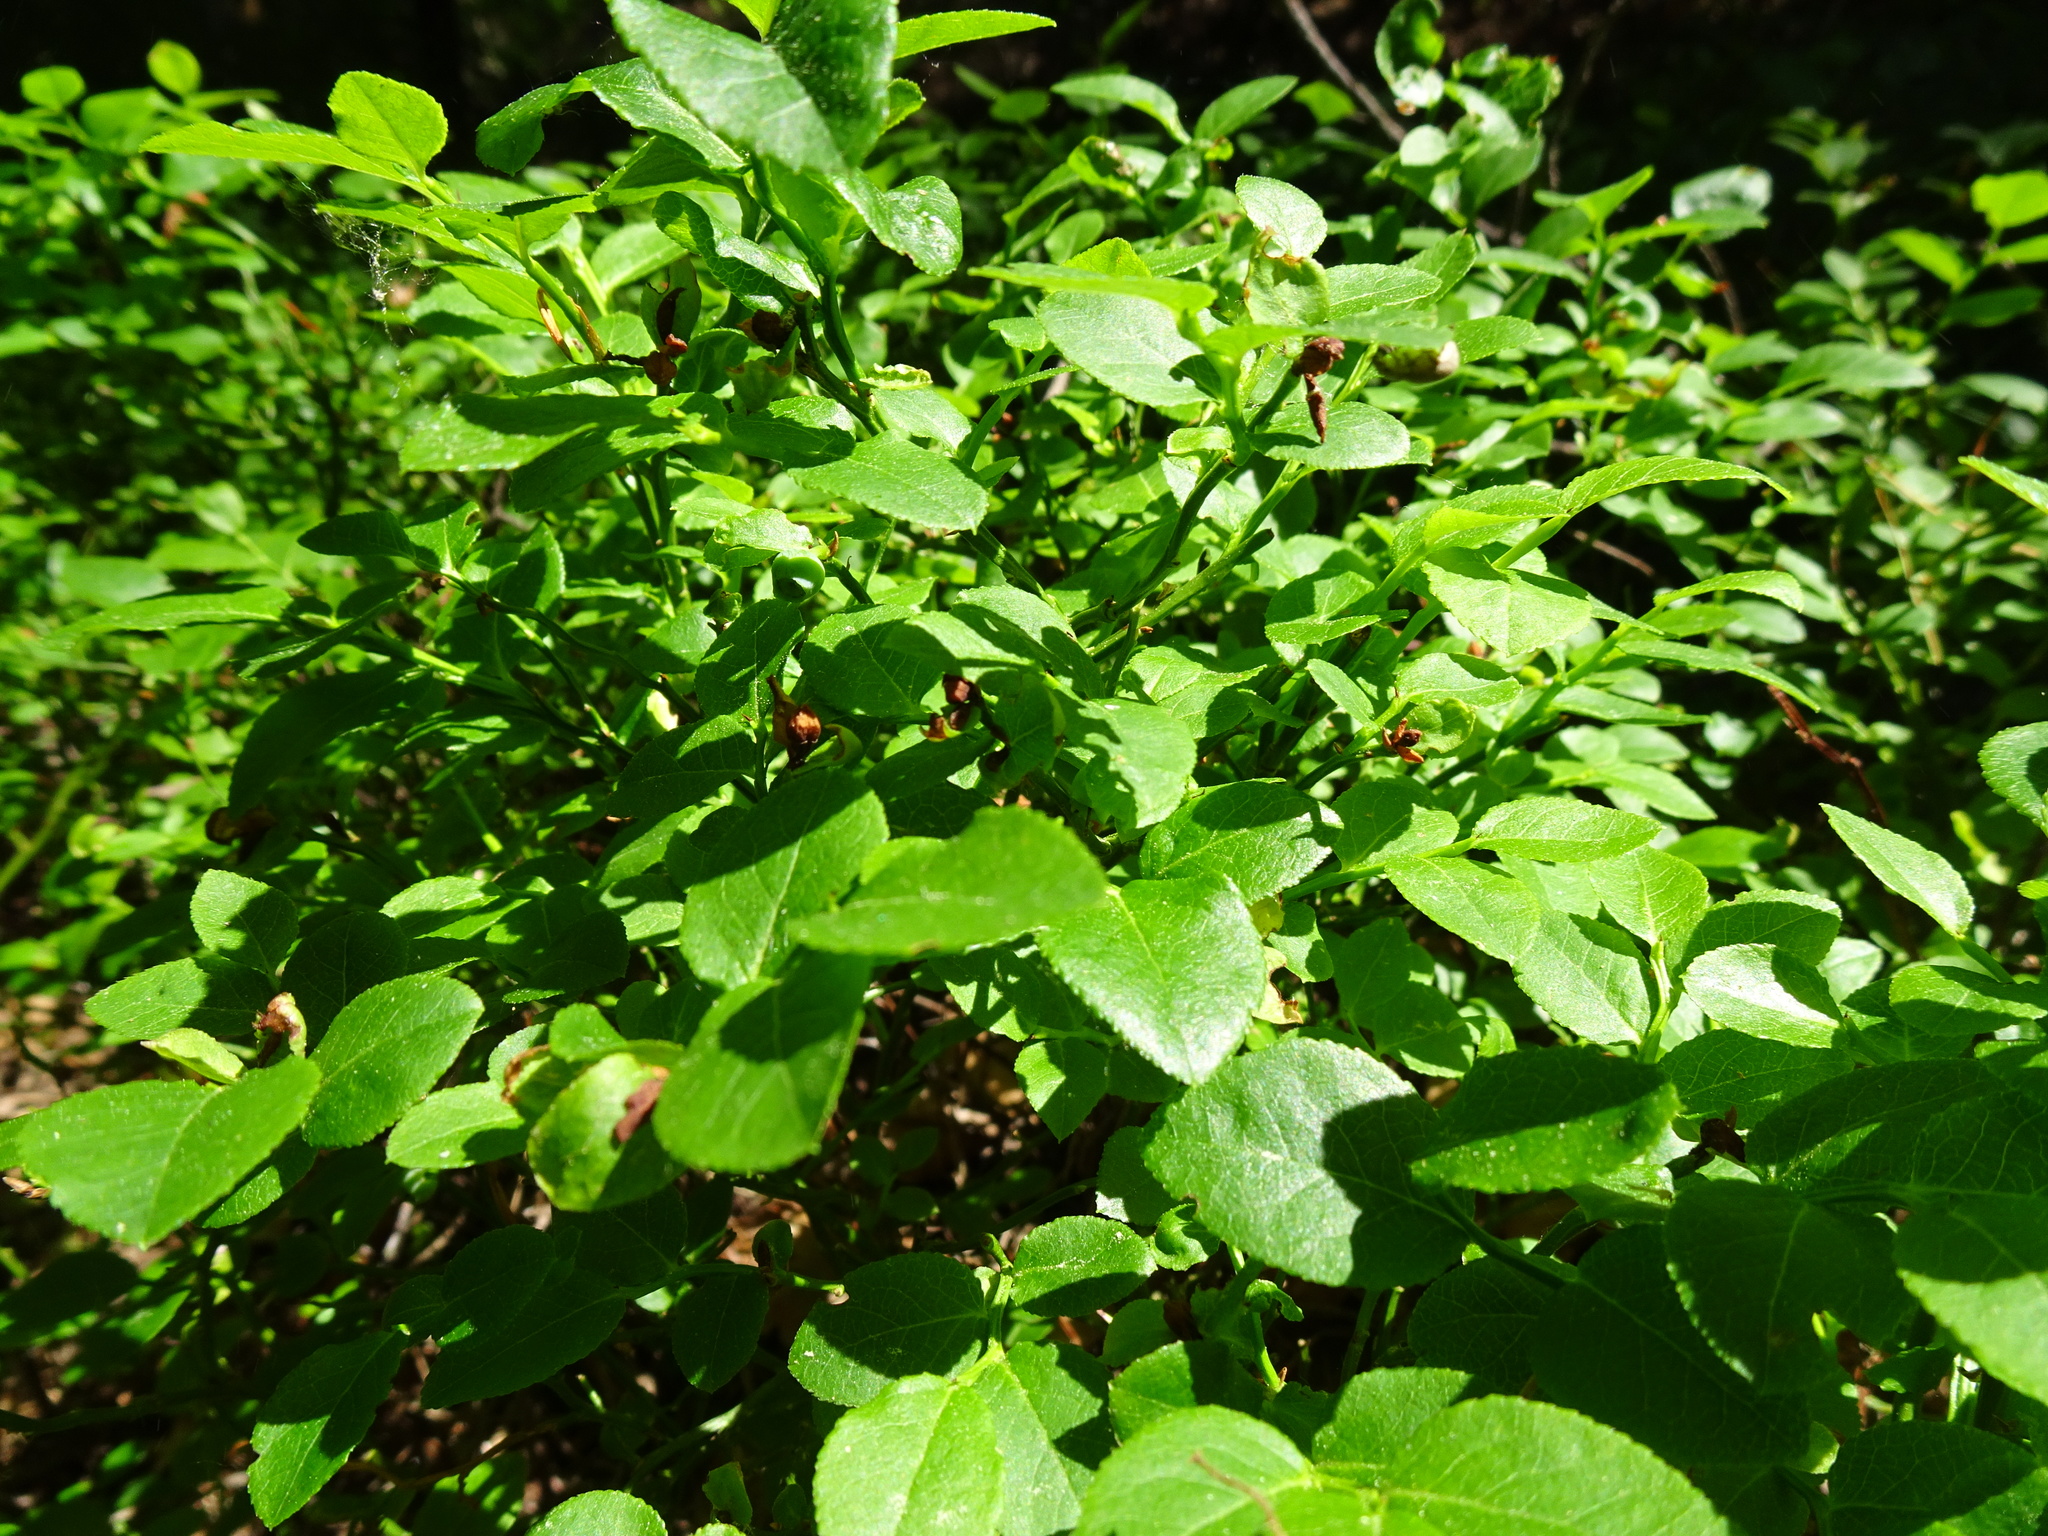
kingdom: Plantae
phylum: Tracheophyta
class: Magnoliopsida
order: Ericales
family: Ericaceae
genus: Vaccinium
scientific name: Vaccinium myrtillus
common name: Bilberry
